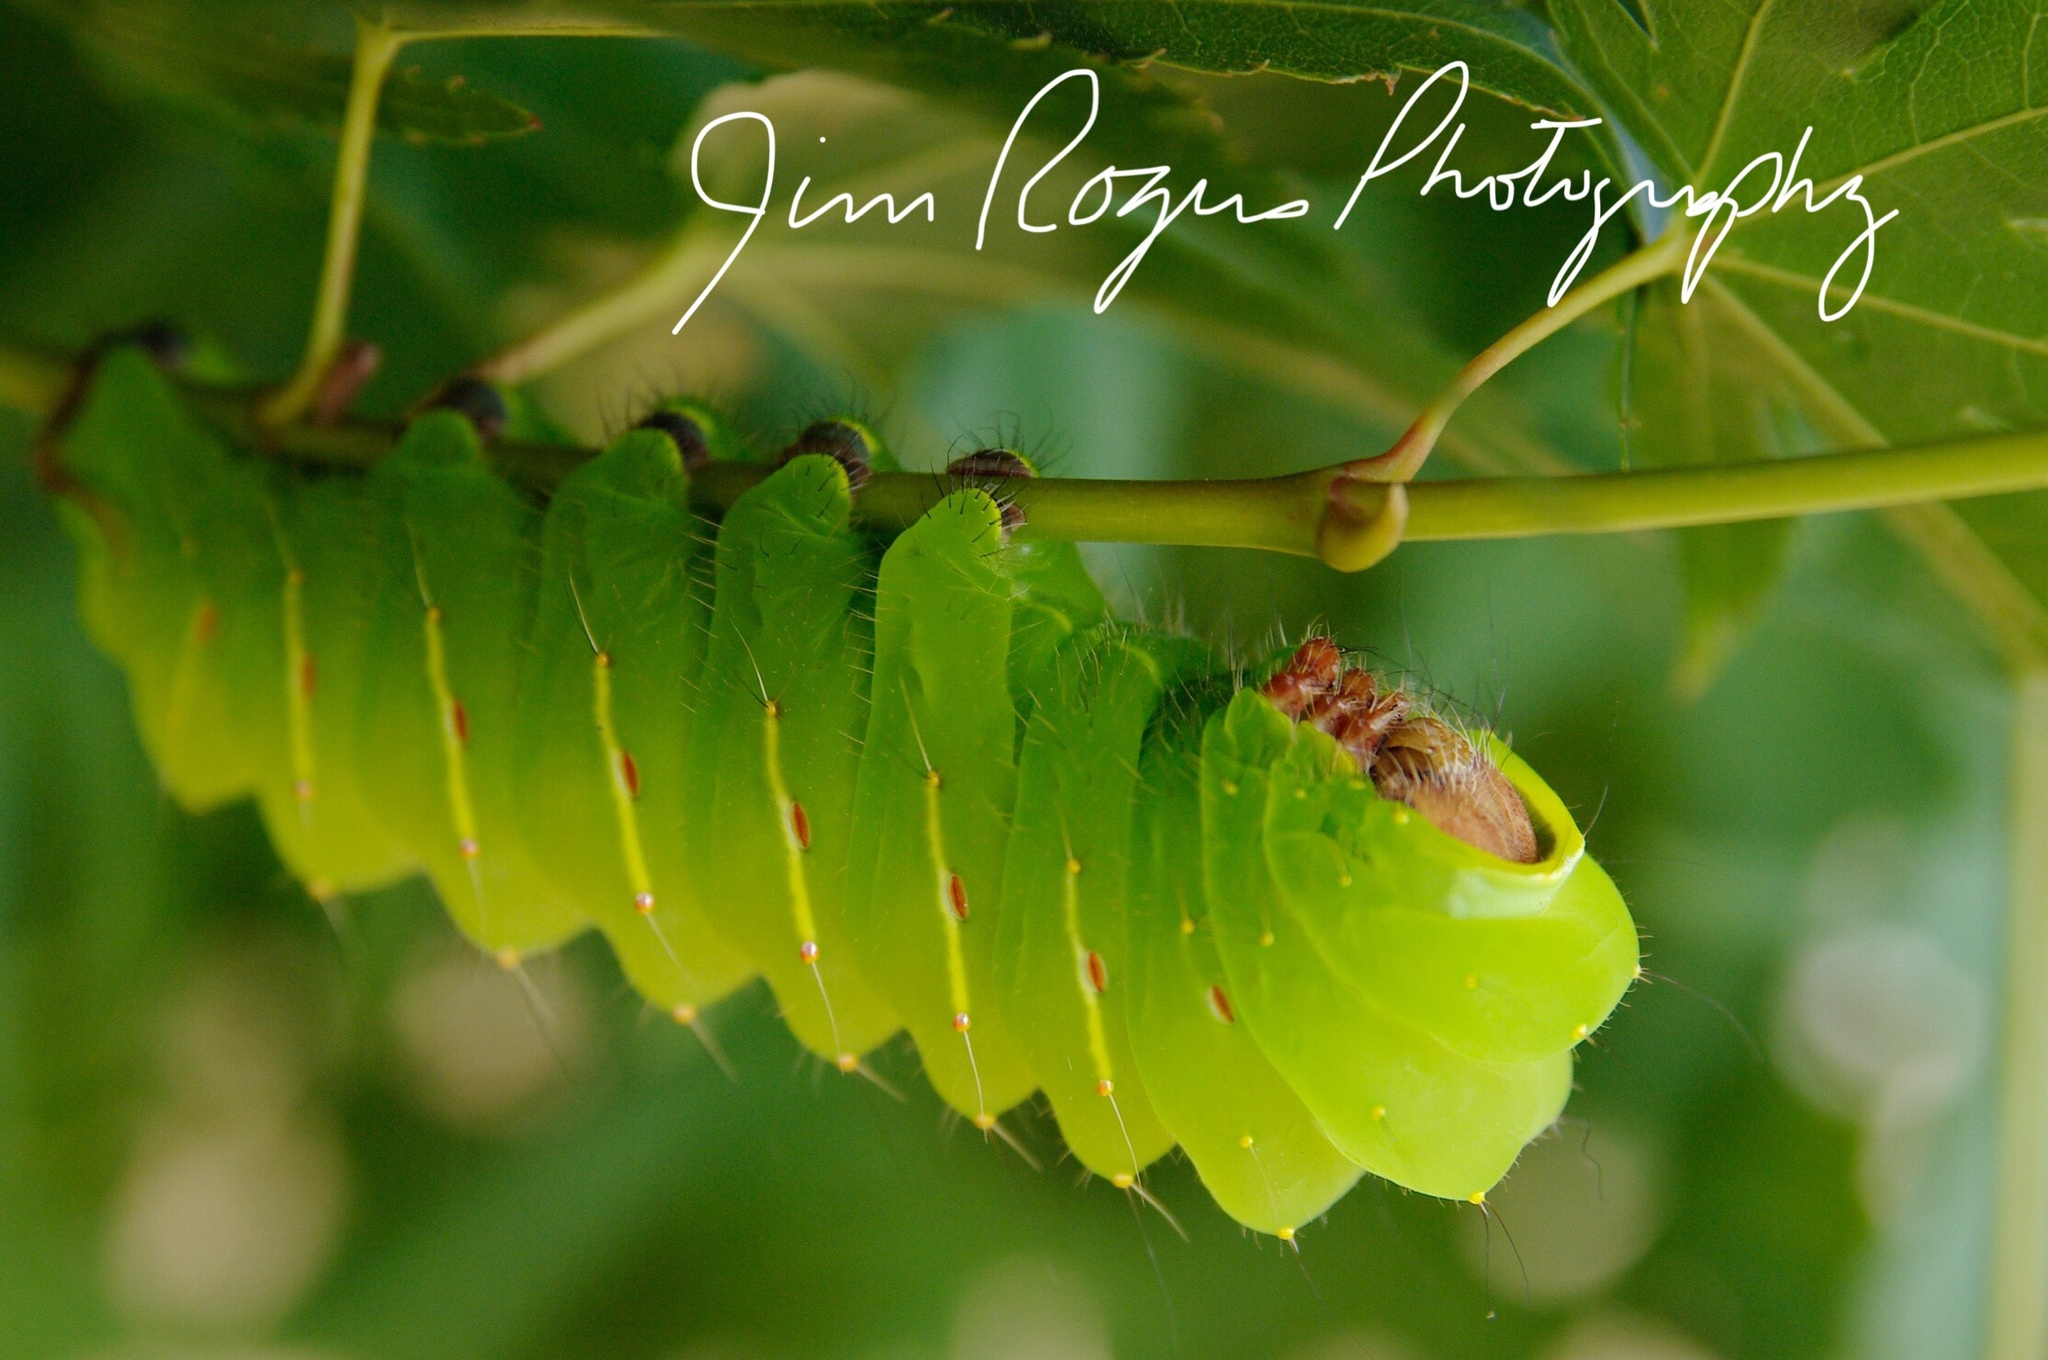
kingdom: Animalia
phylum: Arthropoda
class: Insecta
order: Lepidoptera
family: Saturniidae
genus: Antheraea
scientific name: Antheraea polyphemus
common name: Polyphemus moth
